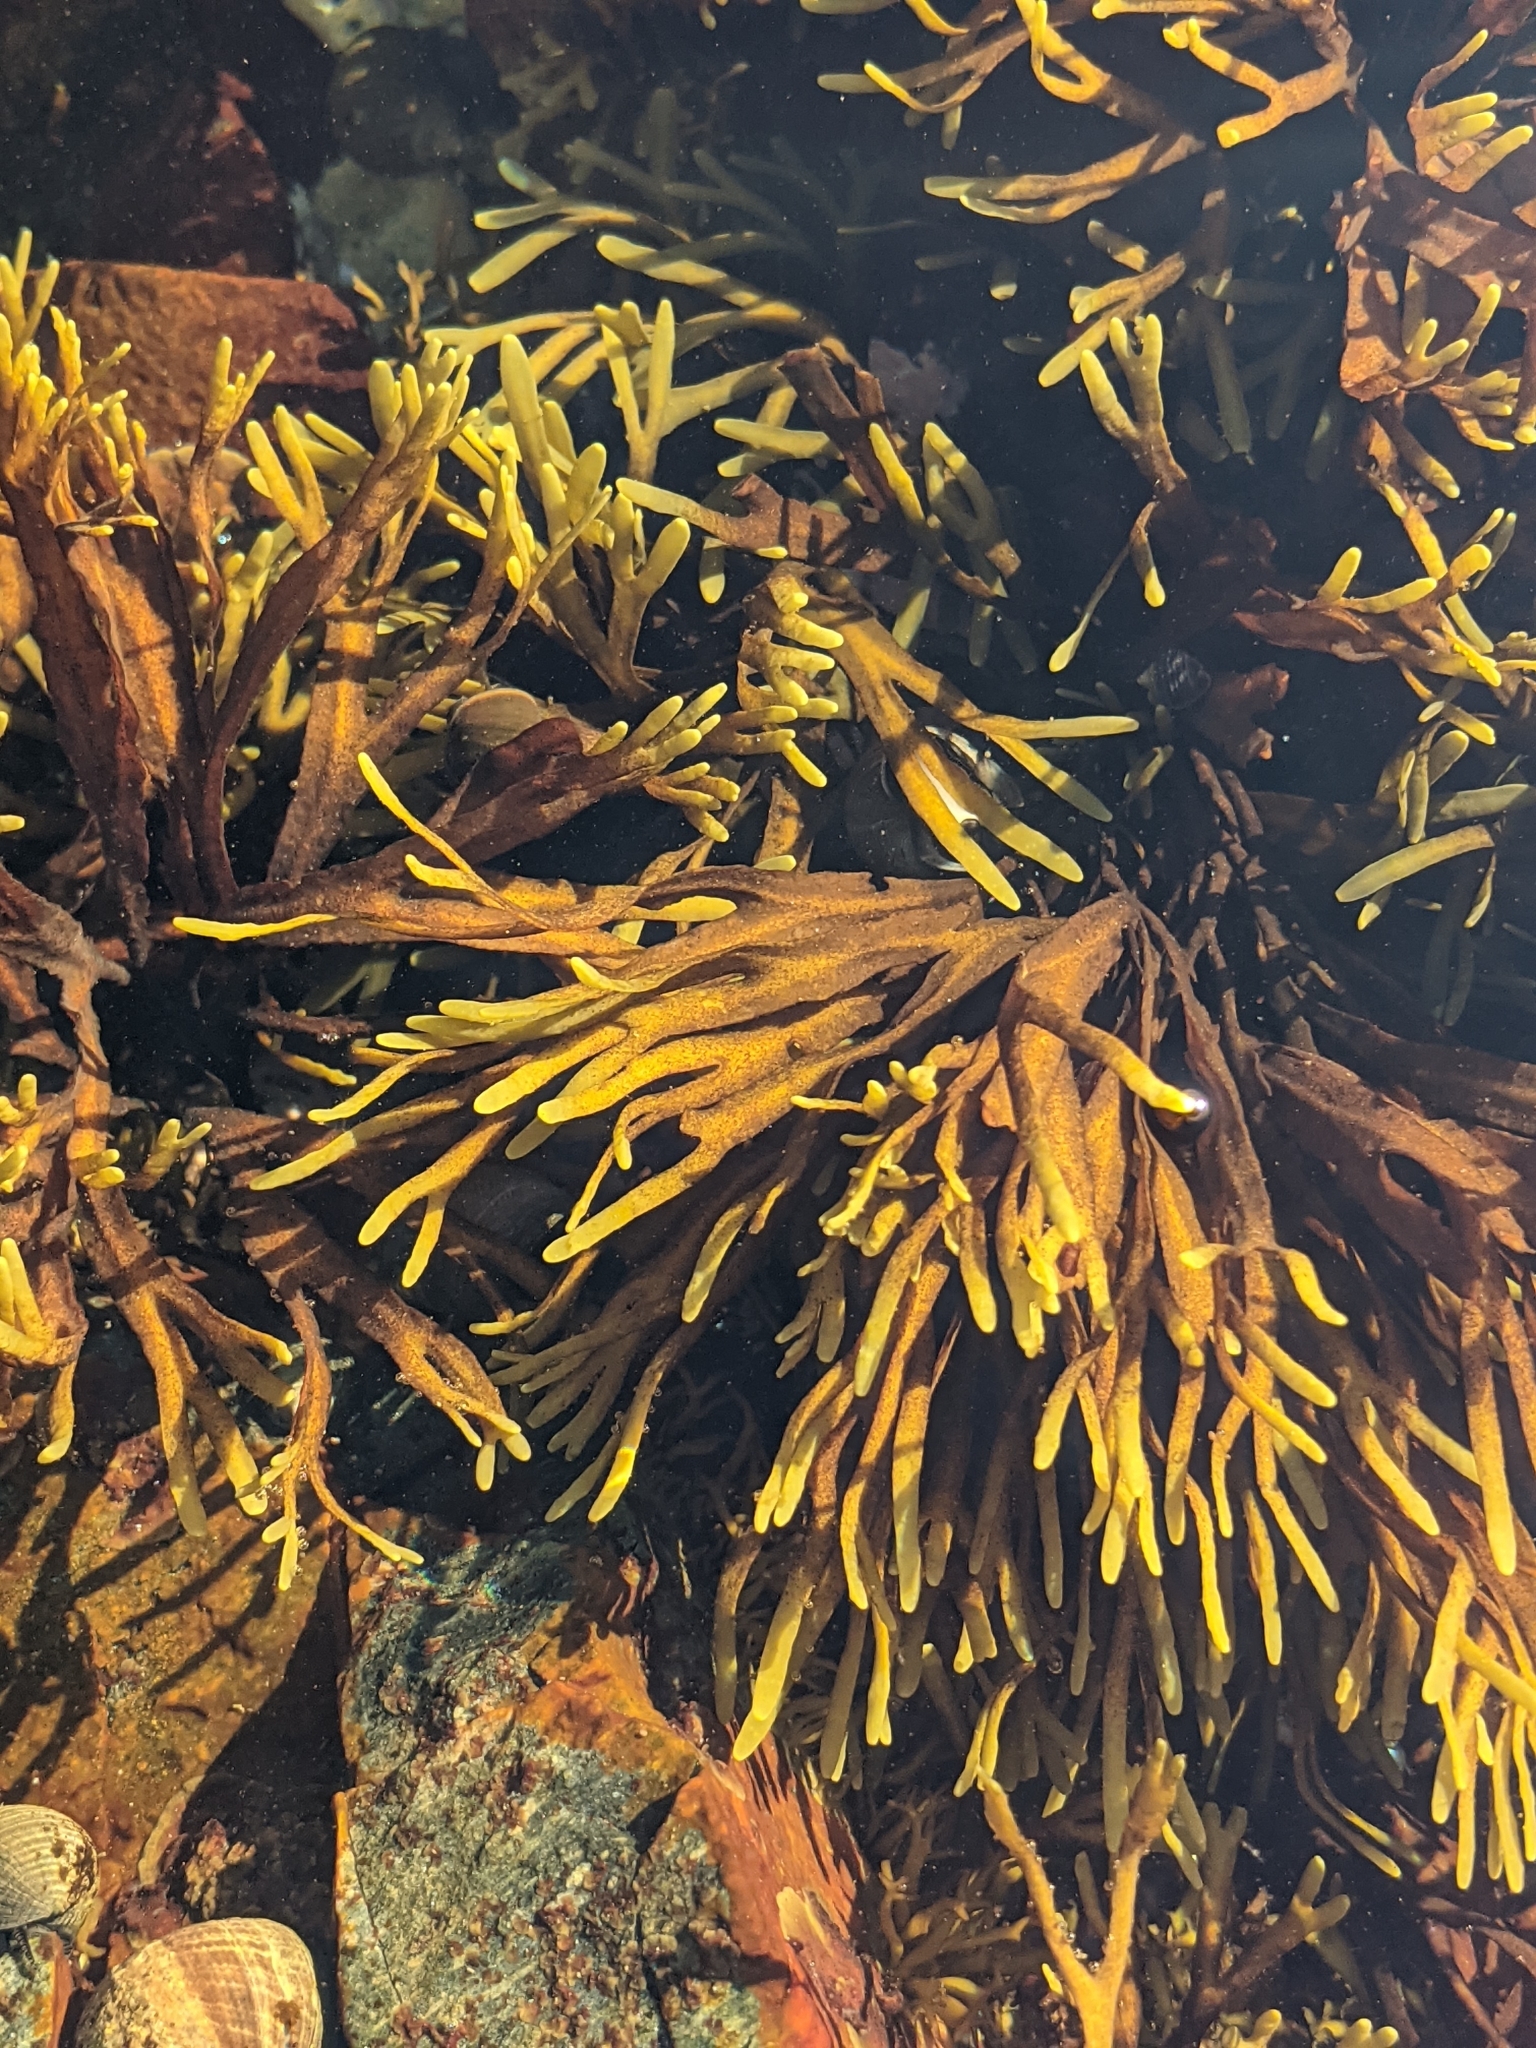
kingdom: Chromista
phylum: Ochrophyta
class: Phaeophyceae
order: Fucales
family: Fucaceae
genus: Ascophyllum
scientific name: Ascophyllum nodosum
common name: Knotted wrack
